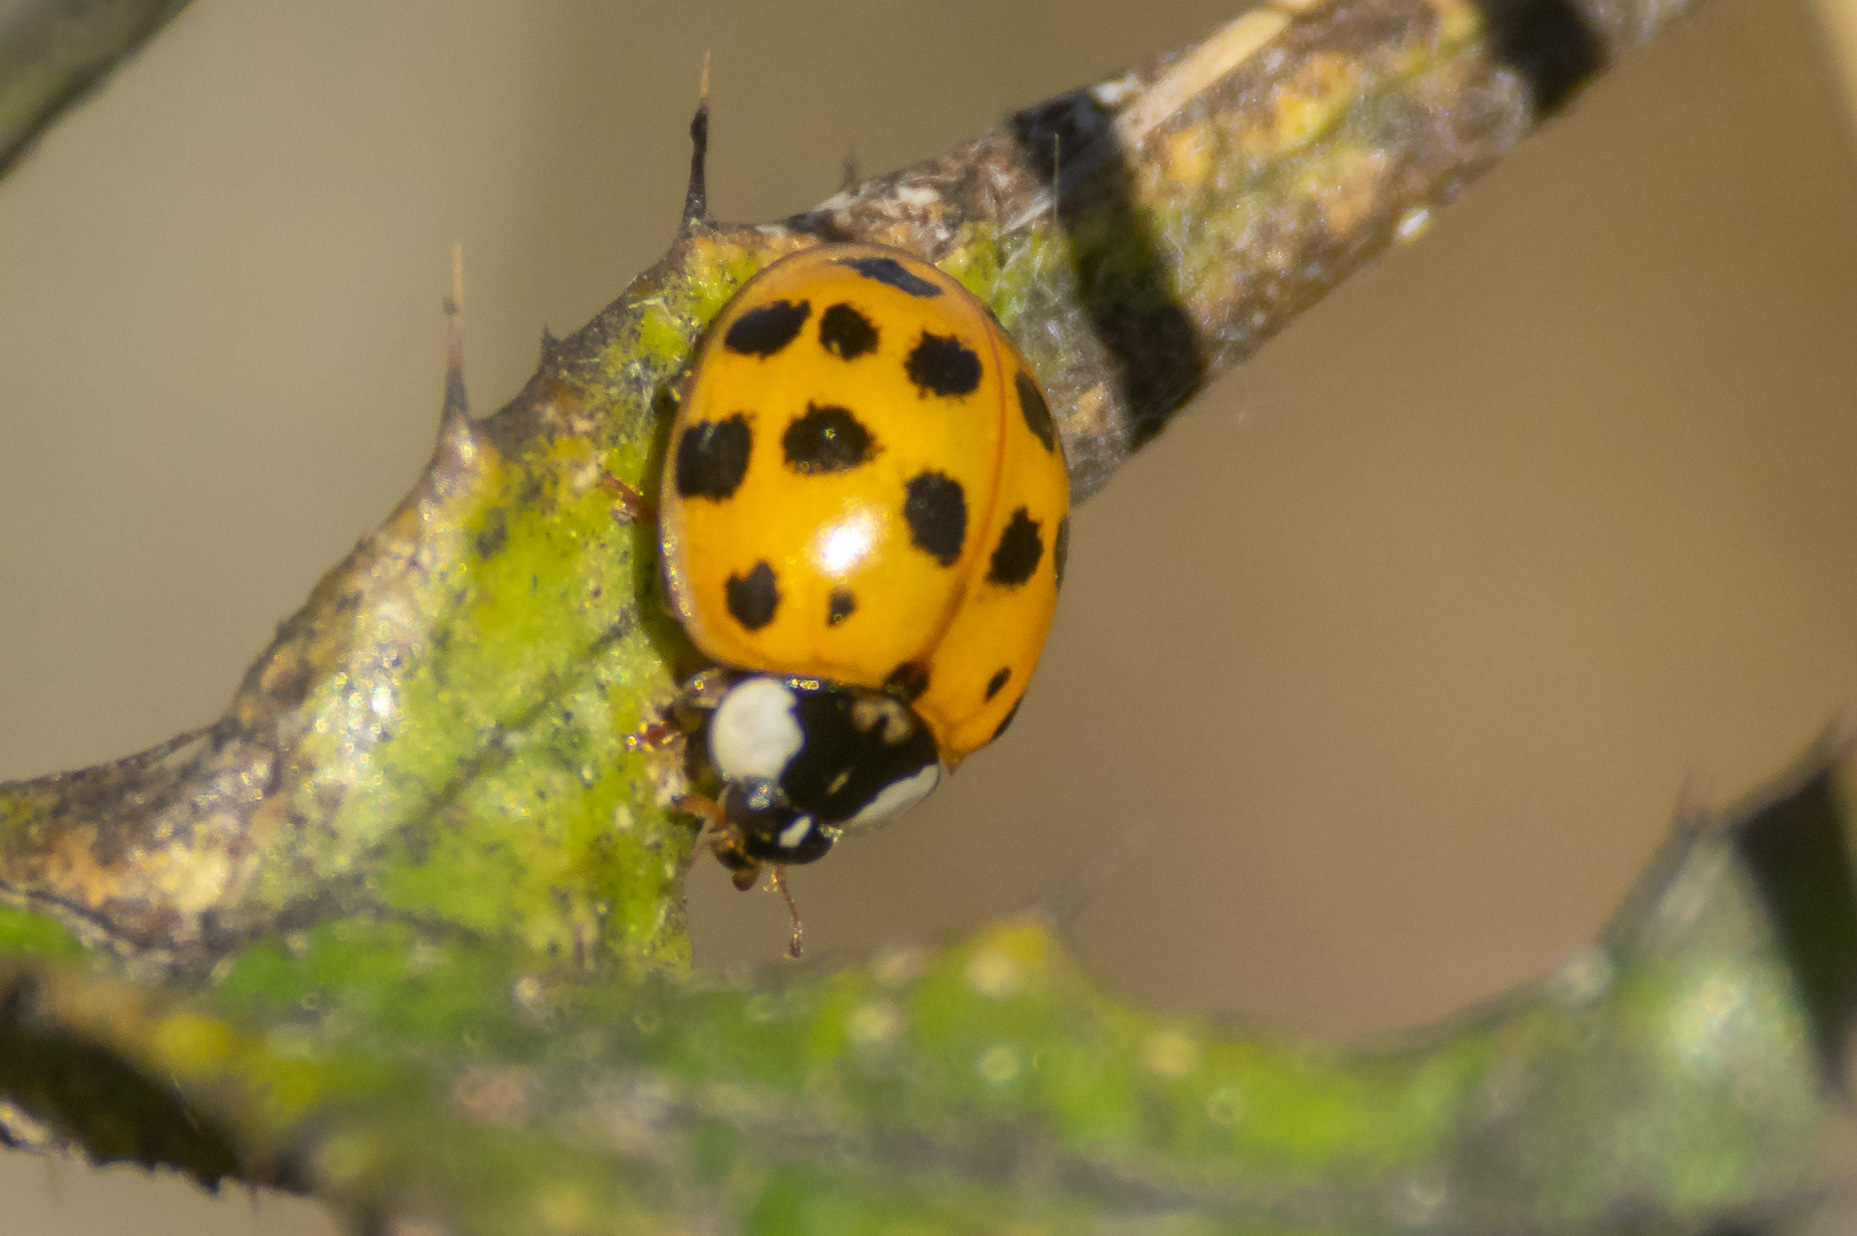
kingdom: Animalia
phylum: Arthropoda
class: Insecta
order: Coleoptera
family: Coccinellidae
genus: Harmonia
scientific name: Harmonia axyridis
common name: Harlequin ladybird
